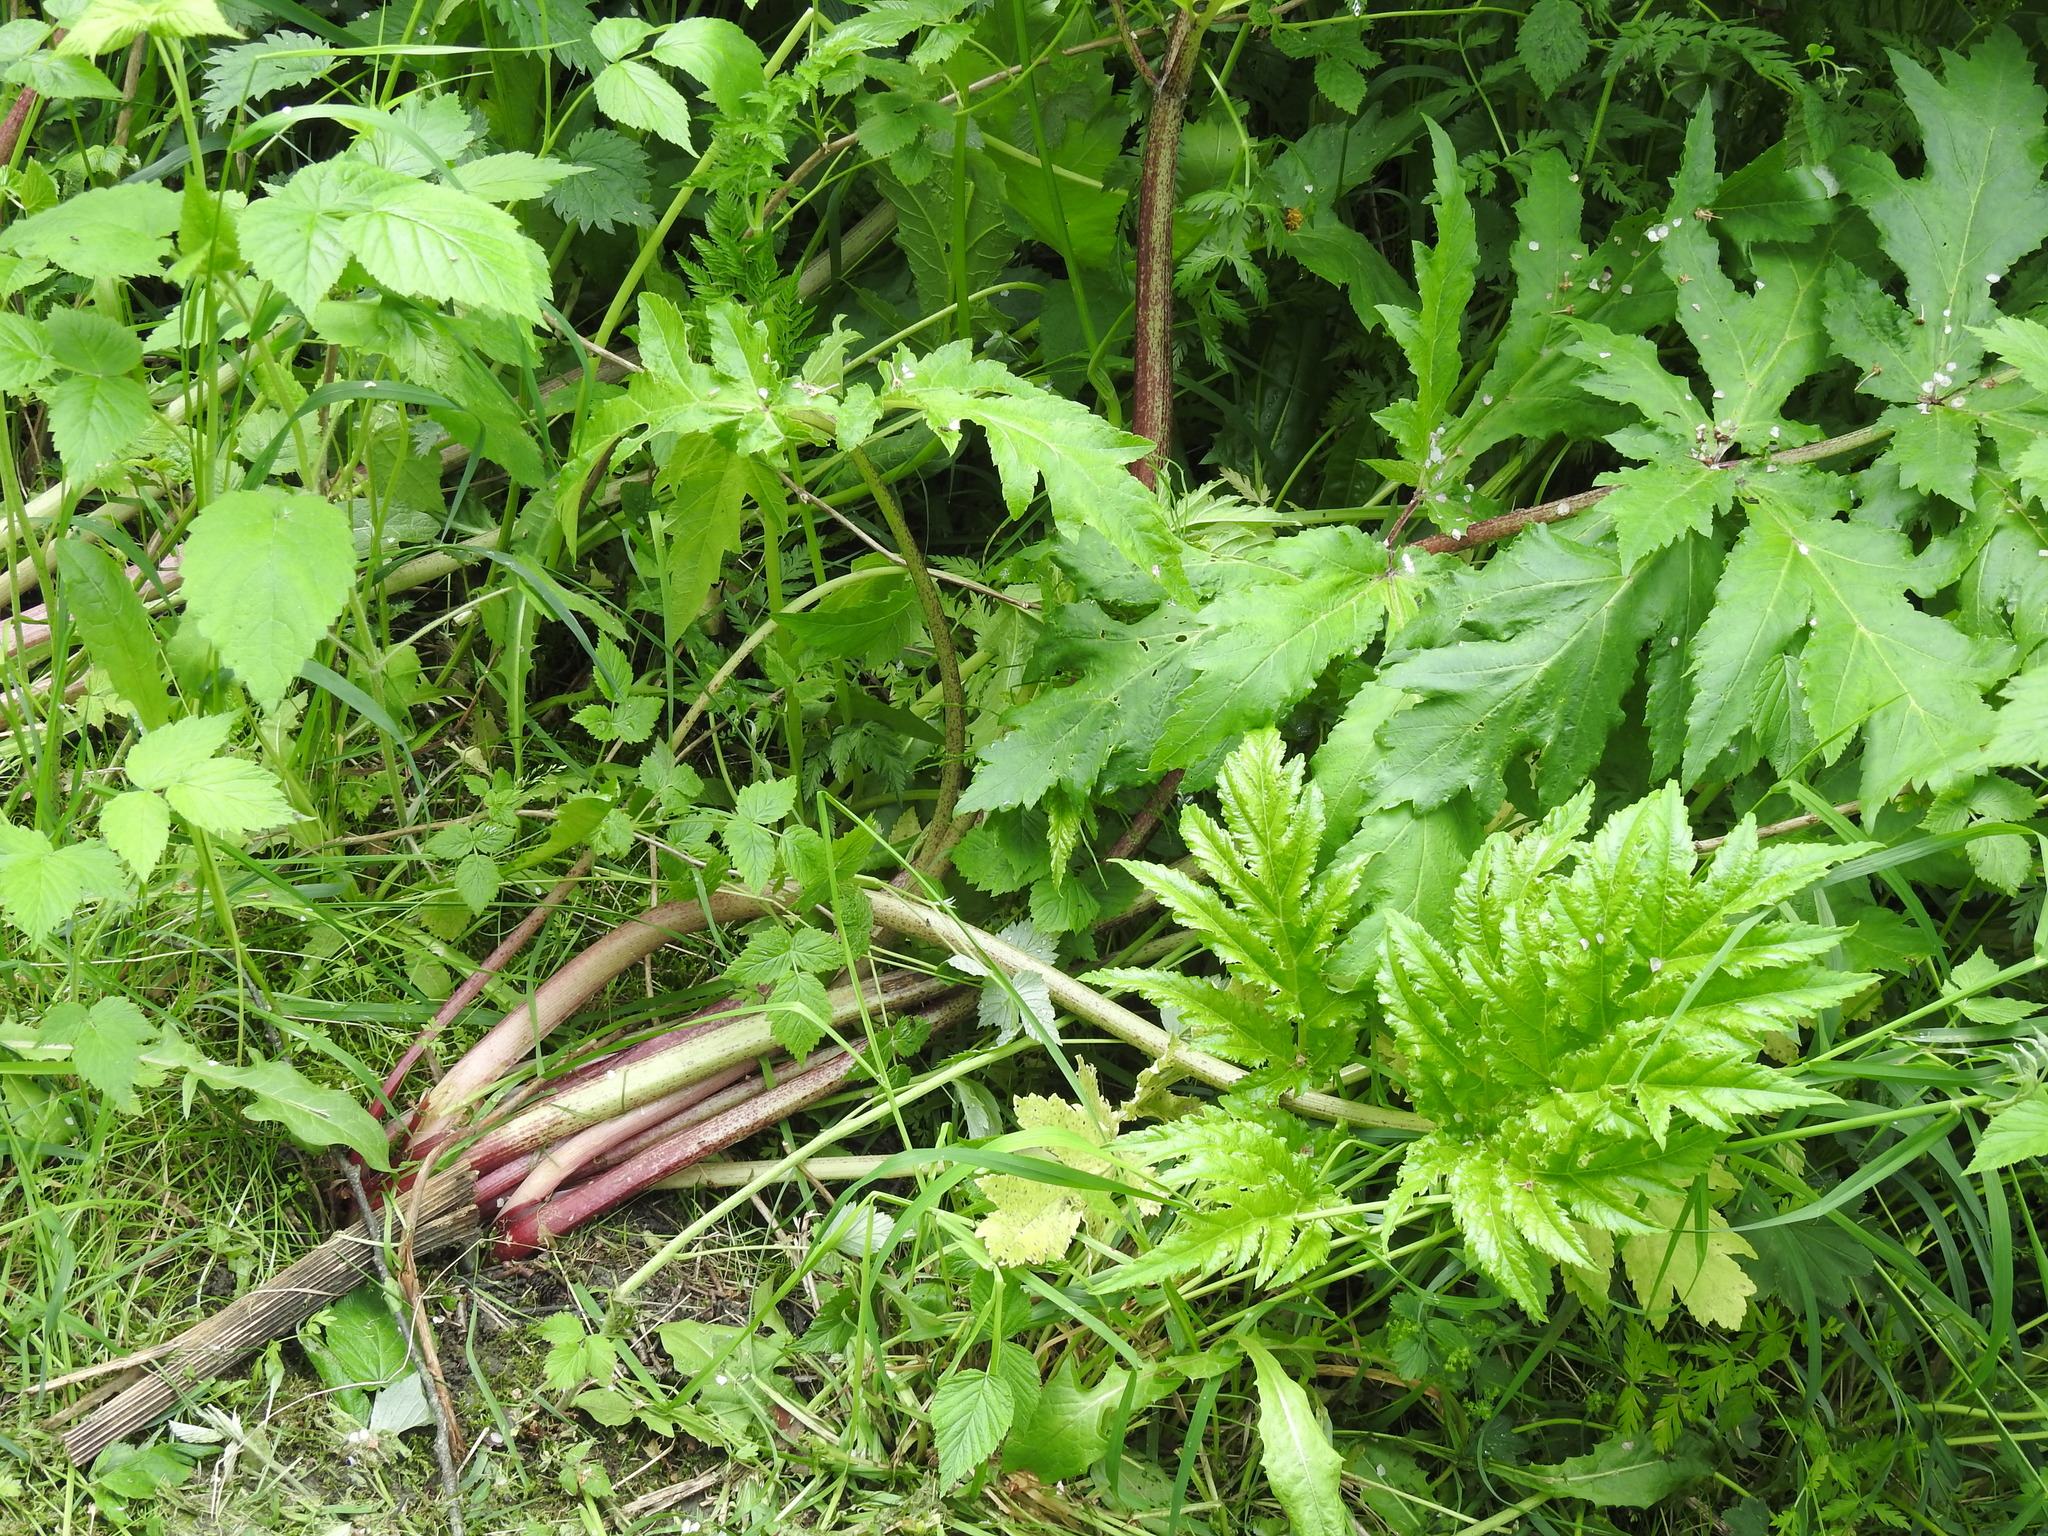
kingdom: Plantae
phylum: Tracheophyta
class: Magnoliopsida
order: Apiales
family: Apiaceae
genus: Heracleum
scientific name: Heracleum mantegazzianum
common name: Giant hogweed
